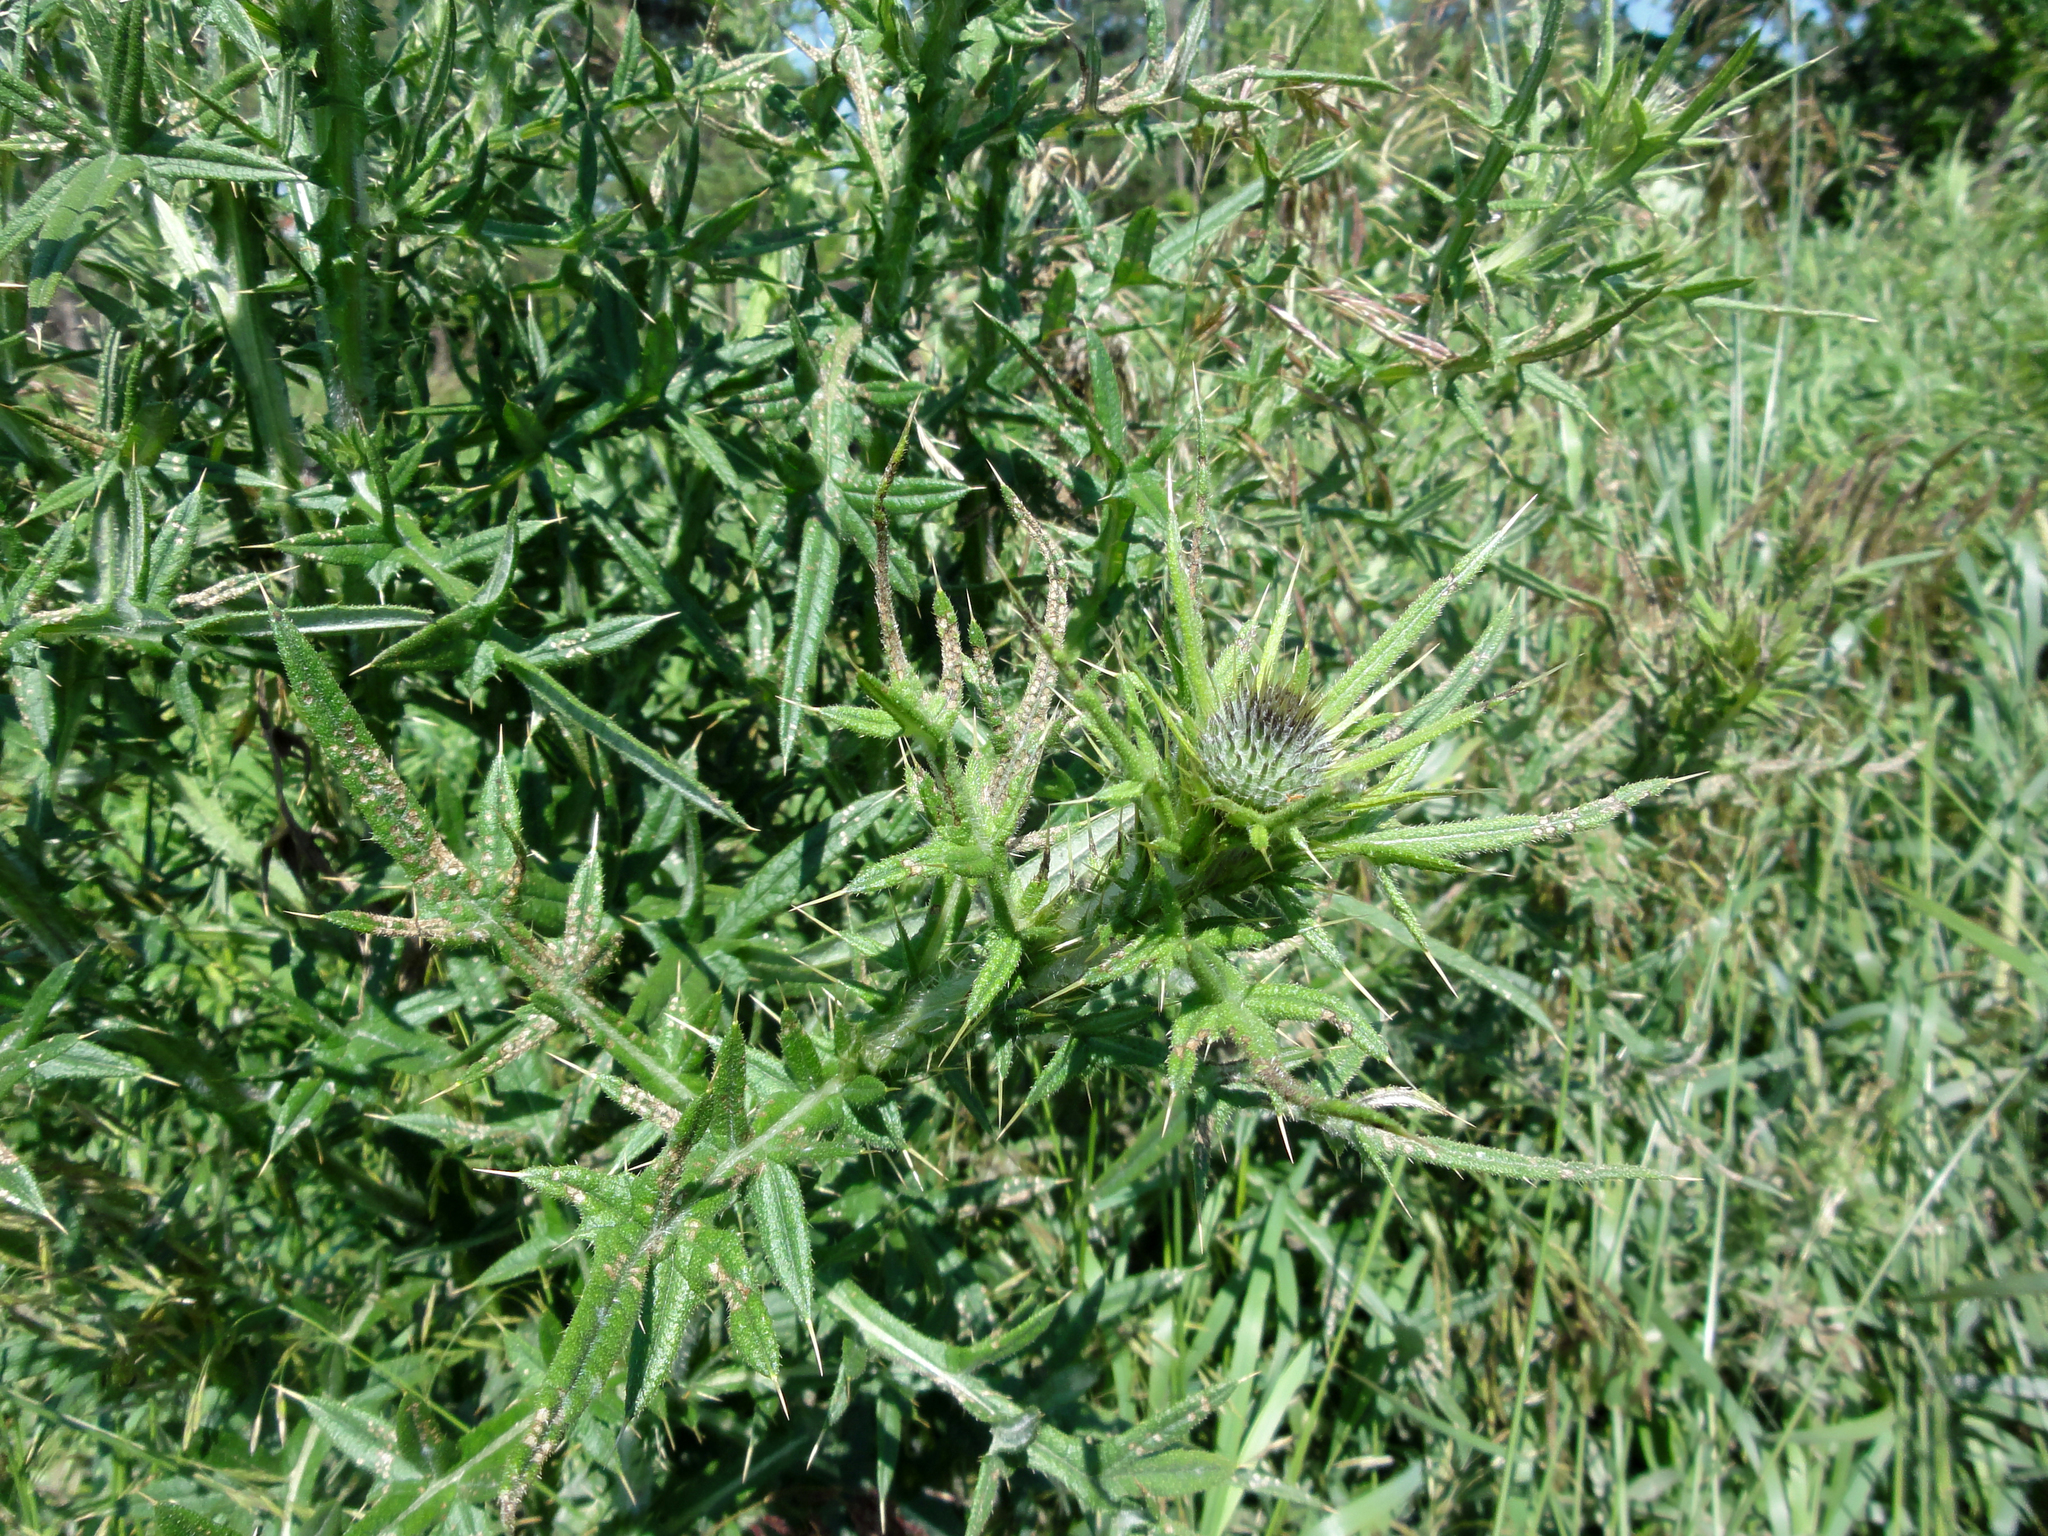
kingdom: Plantae
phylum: Tracheophyta
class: Magnoliopsida
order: Asterales
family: Asteraceae
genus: Cirsium
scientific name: Cirsium vulgare
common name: Bull thistle
